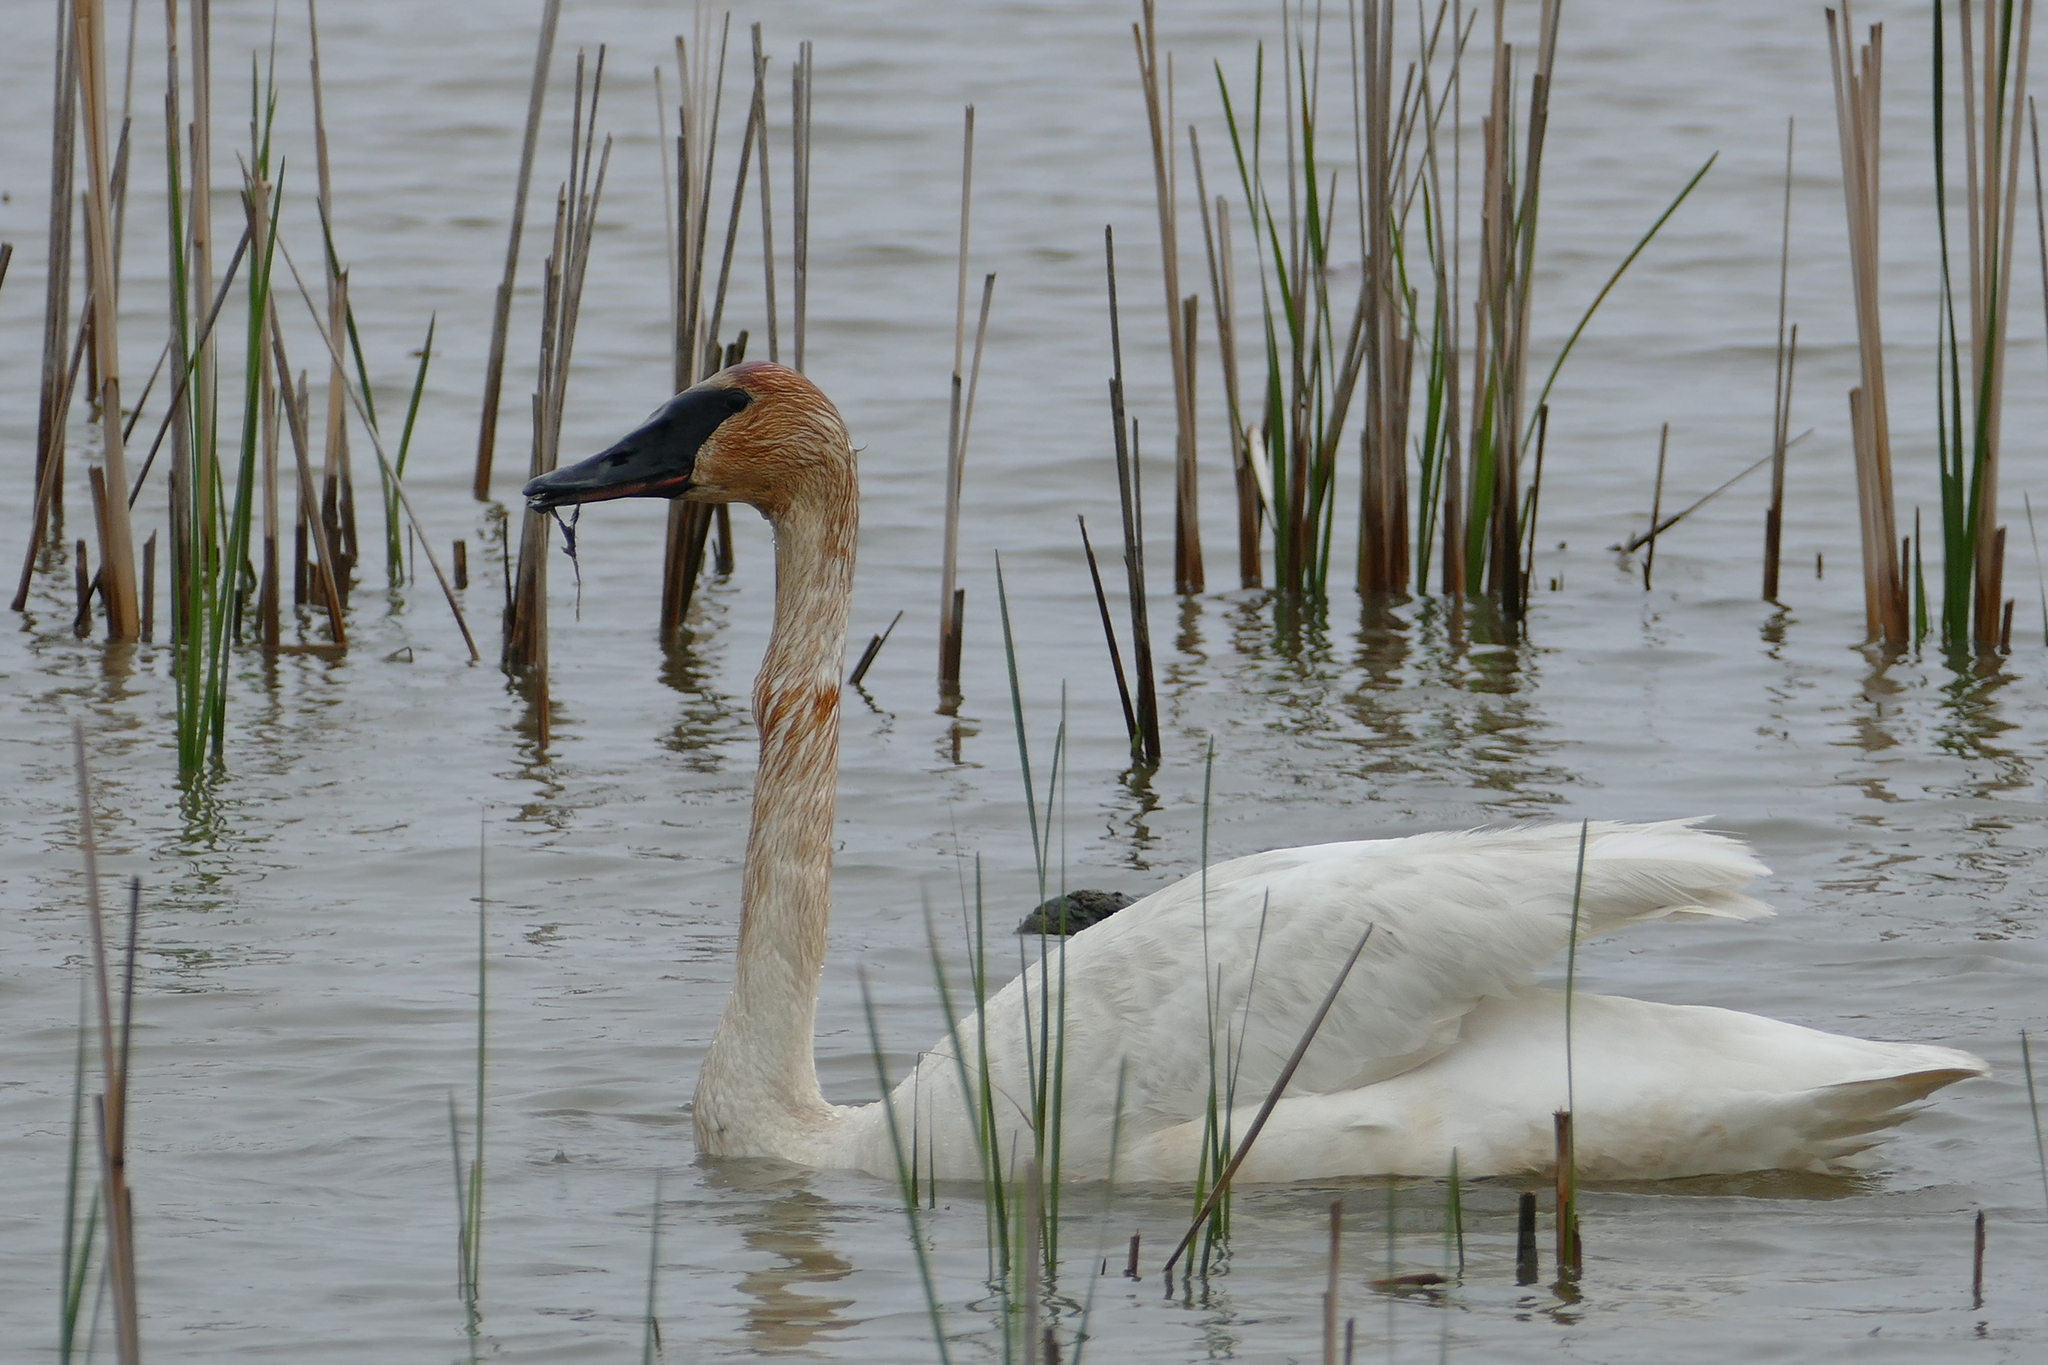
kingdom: Animalia
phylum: Chordata
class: Aves
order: Anseriformes
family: Anatidae
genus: Cygnus
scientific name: Cygnus buccinator
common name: Trumpeter swan
